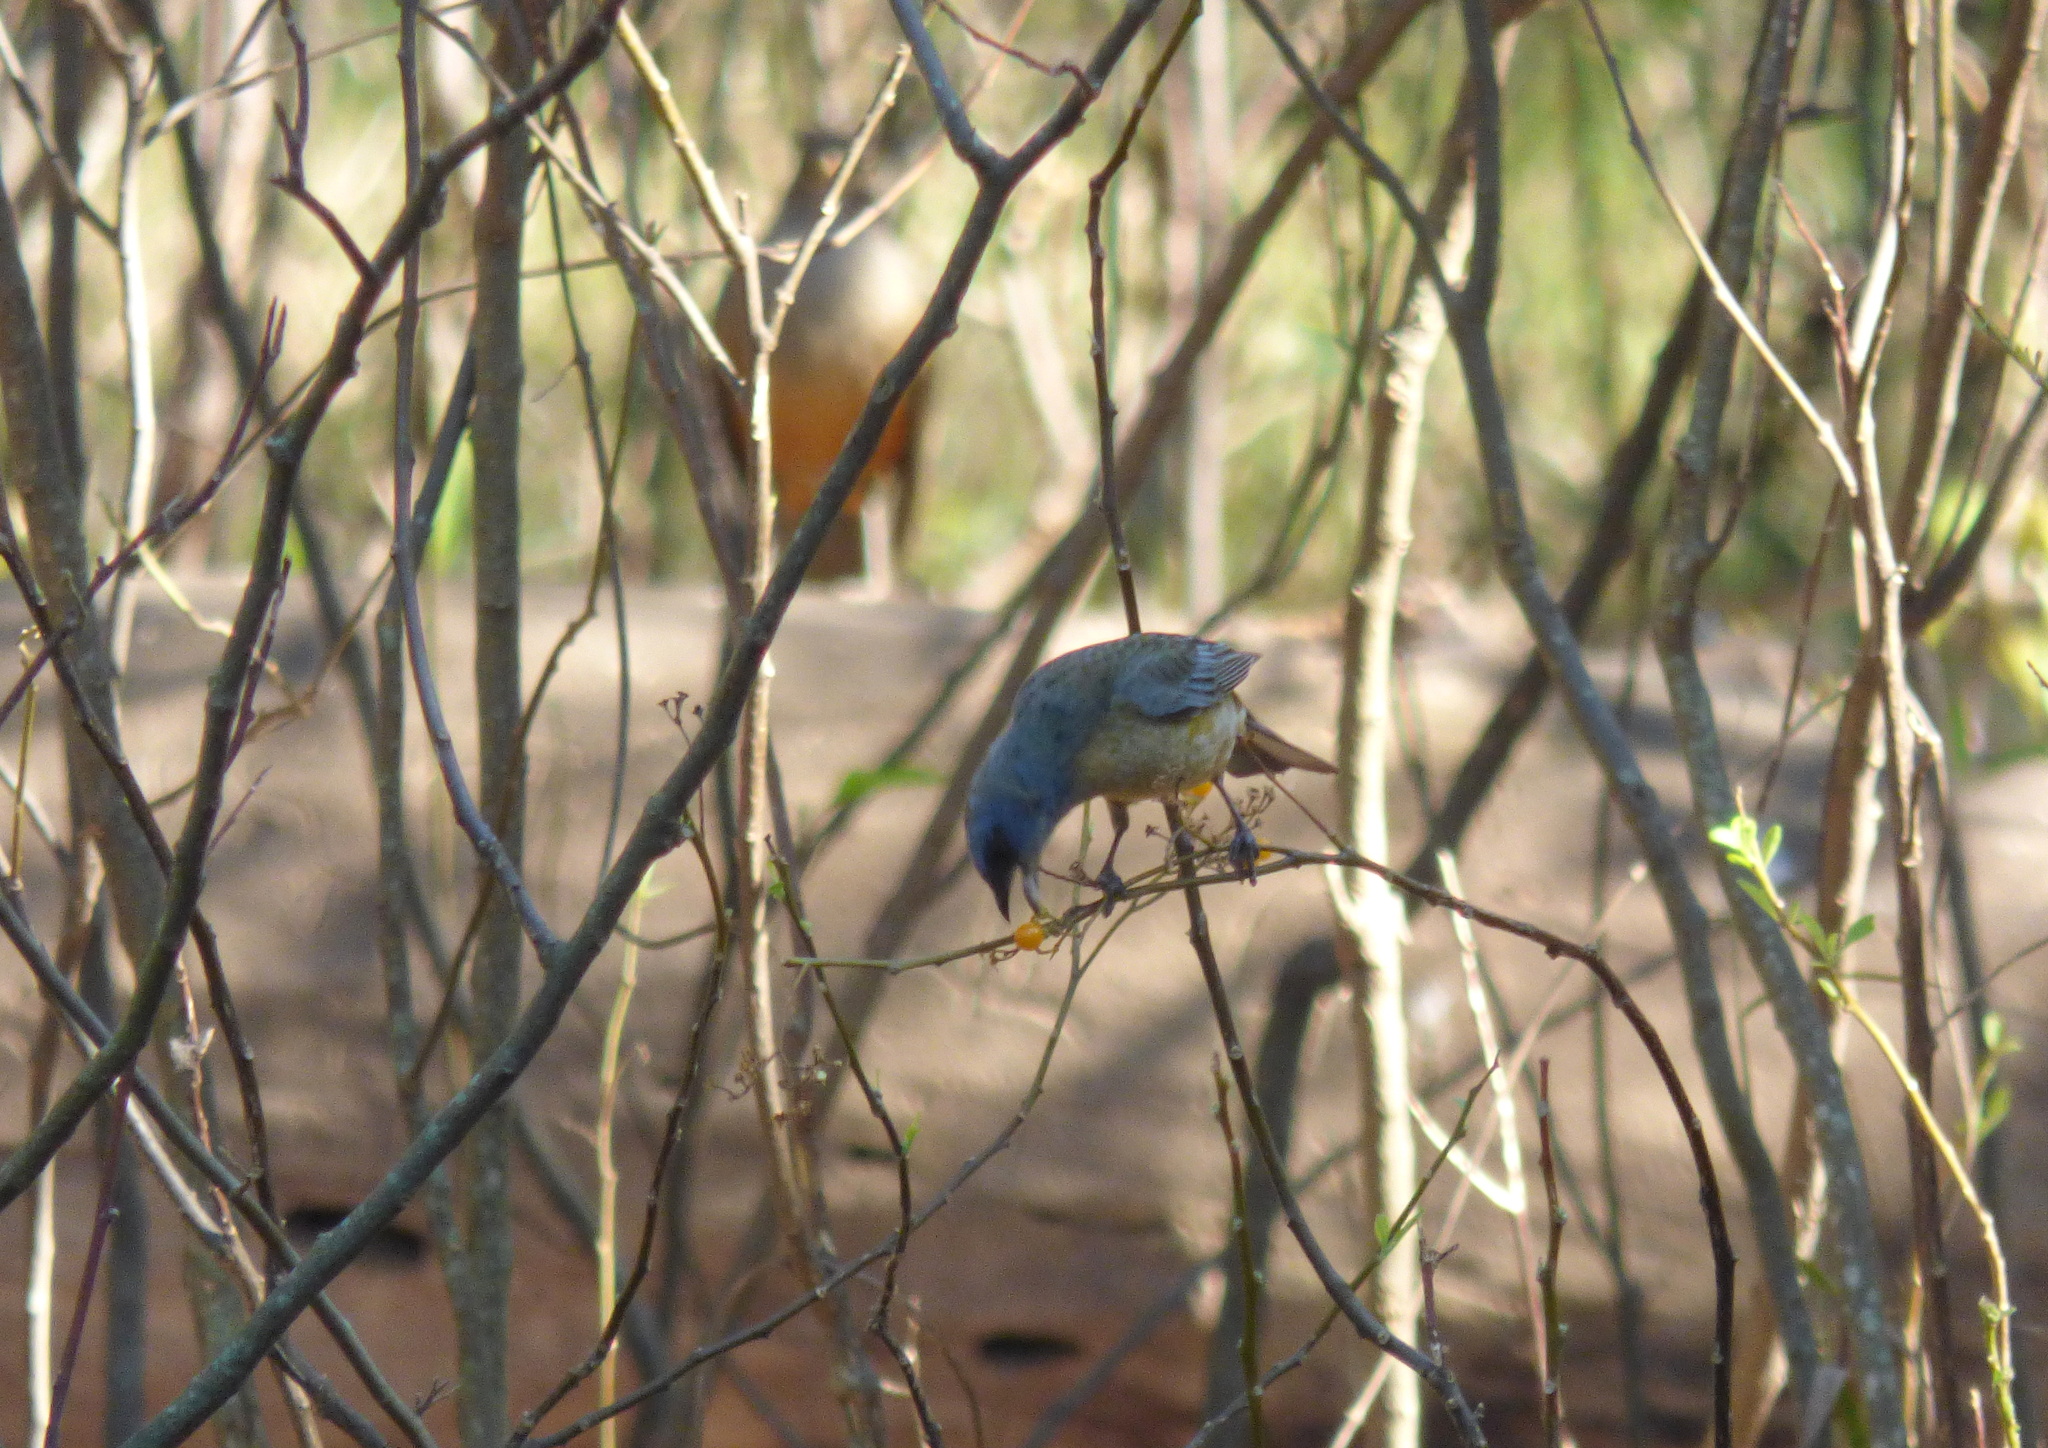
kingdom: Animalia
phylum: Chordata
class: Aves
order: Passeriformes
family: Thraupidae
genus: Rauenia
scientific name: Rauenia bonariensis
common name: Blue-and-yellow tanager
